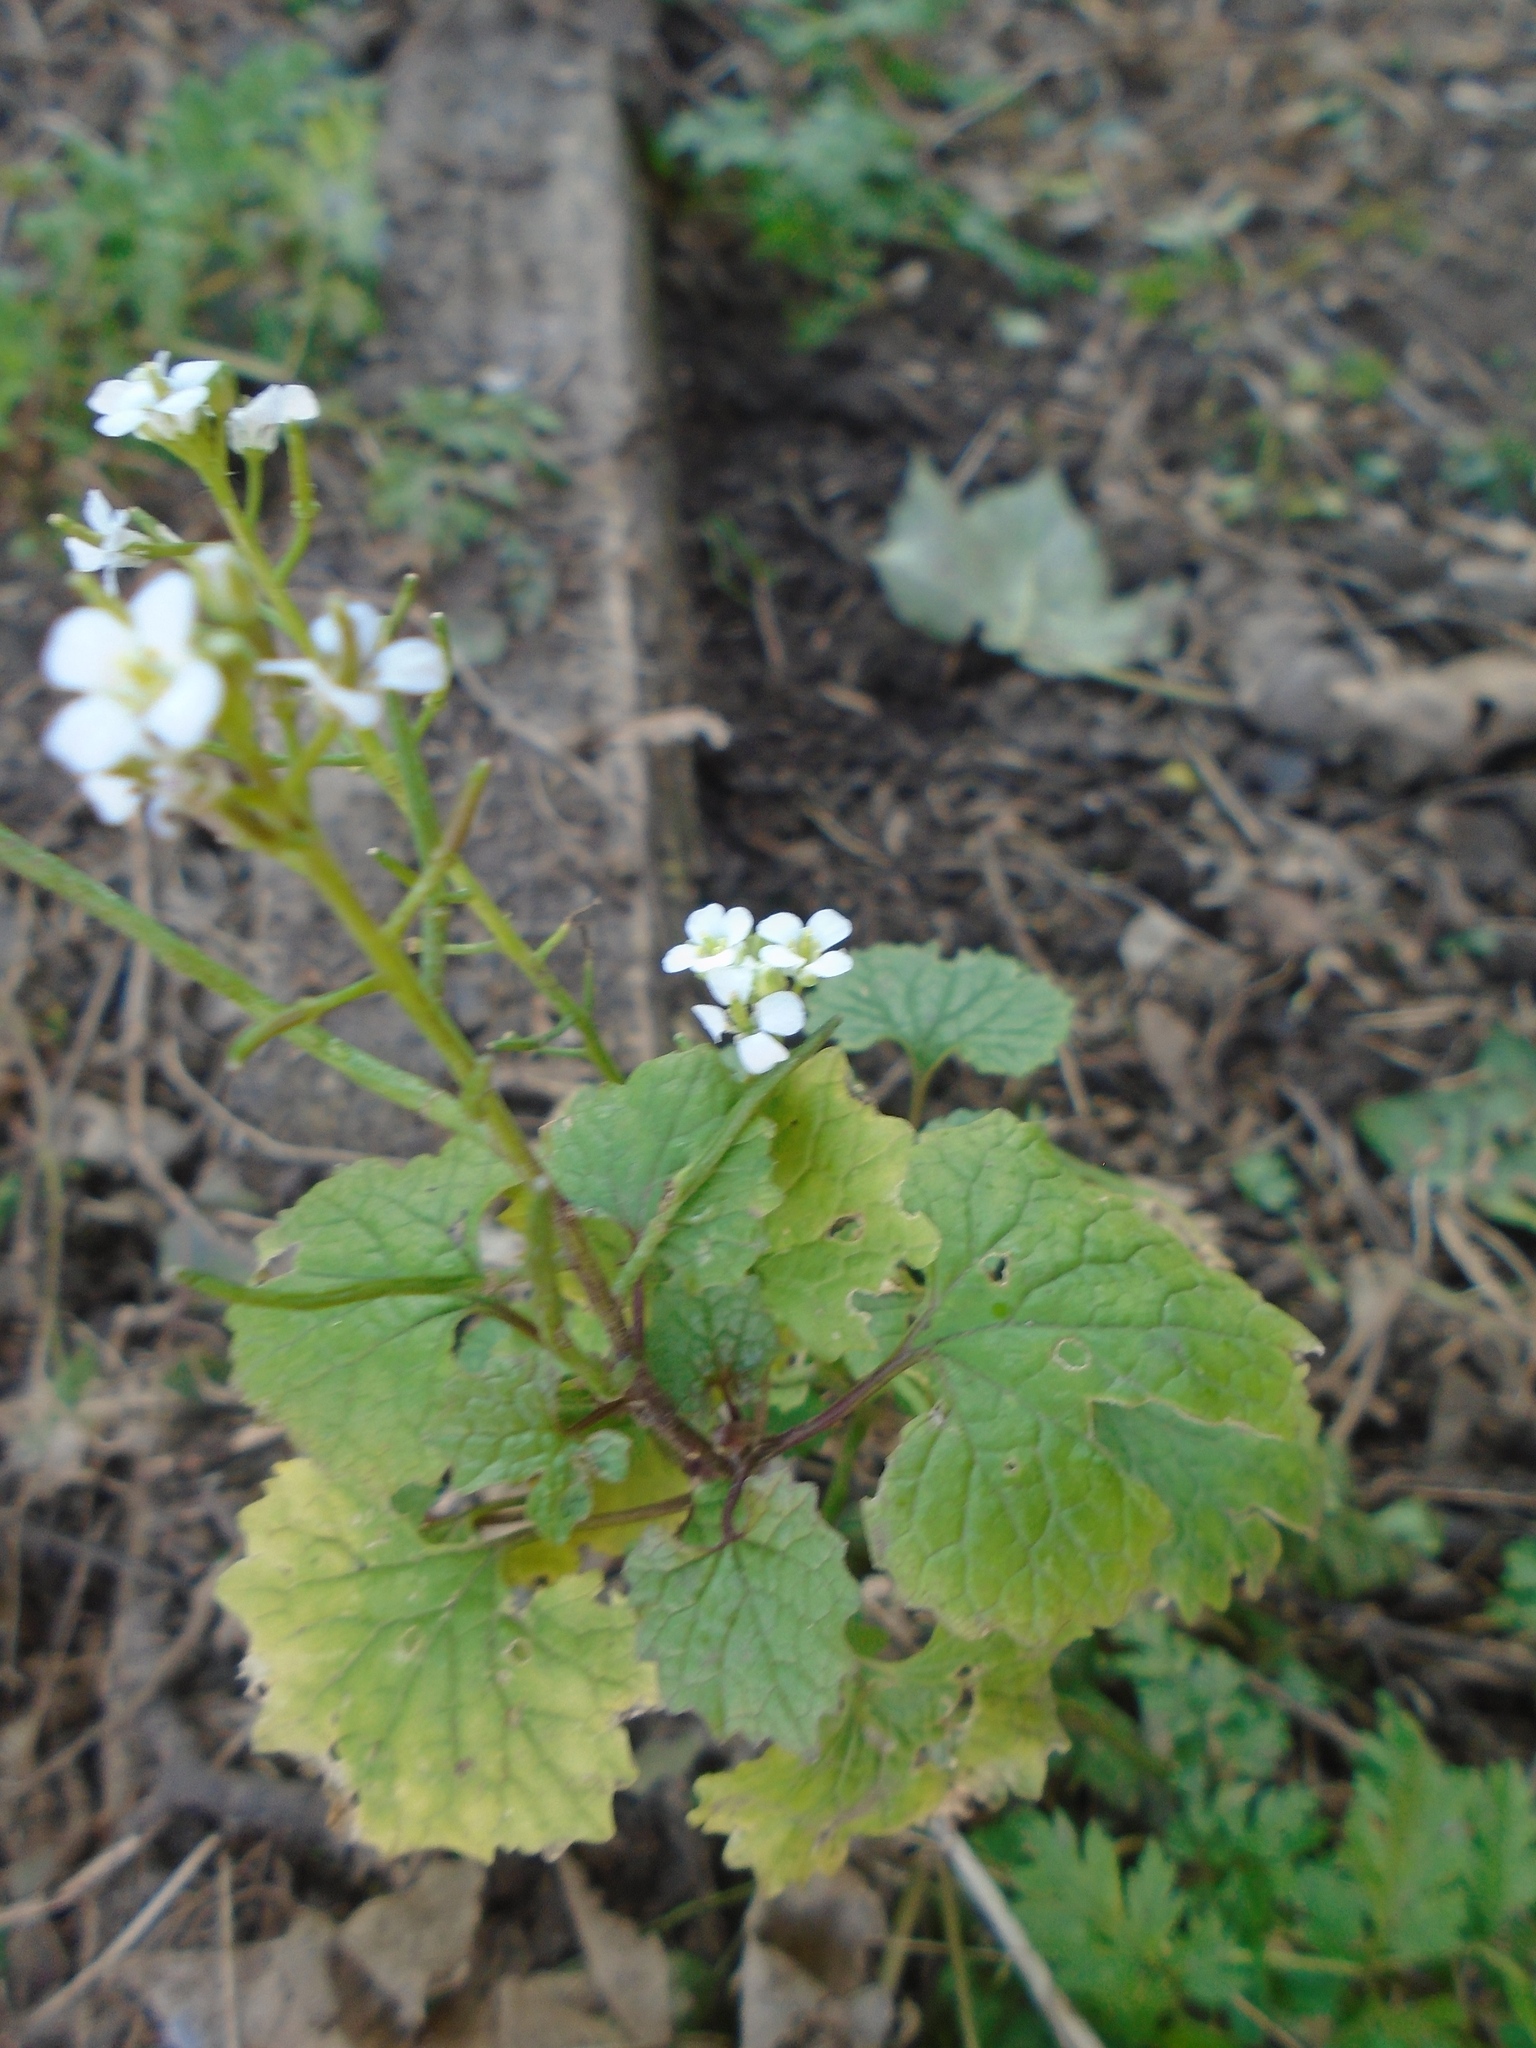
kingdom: Plantae
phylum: Tracheophyta
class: Magnoliopsida
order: Brassicales
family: Brassicaceae
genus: Alliaria
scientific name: Alliaria petiolata
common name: Garlic mustard
